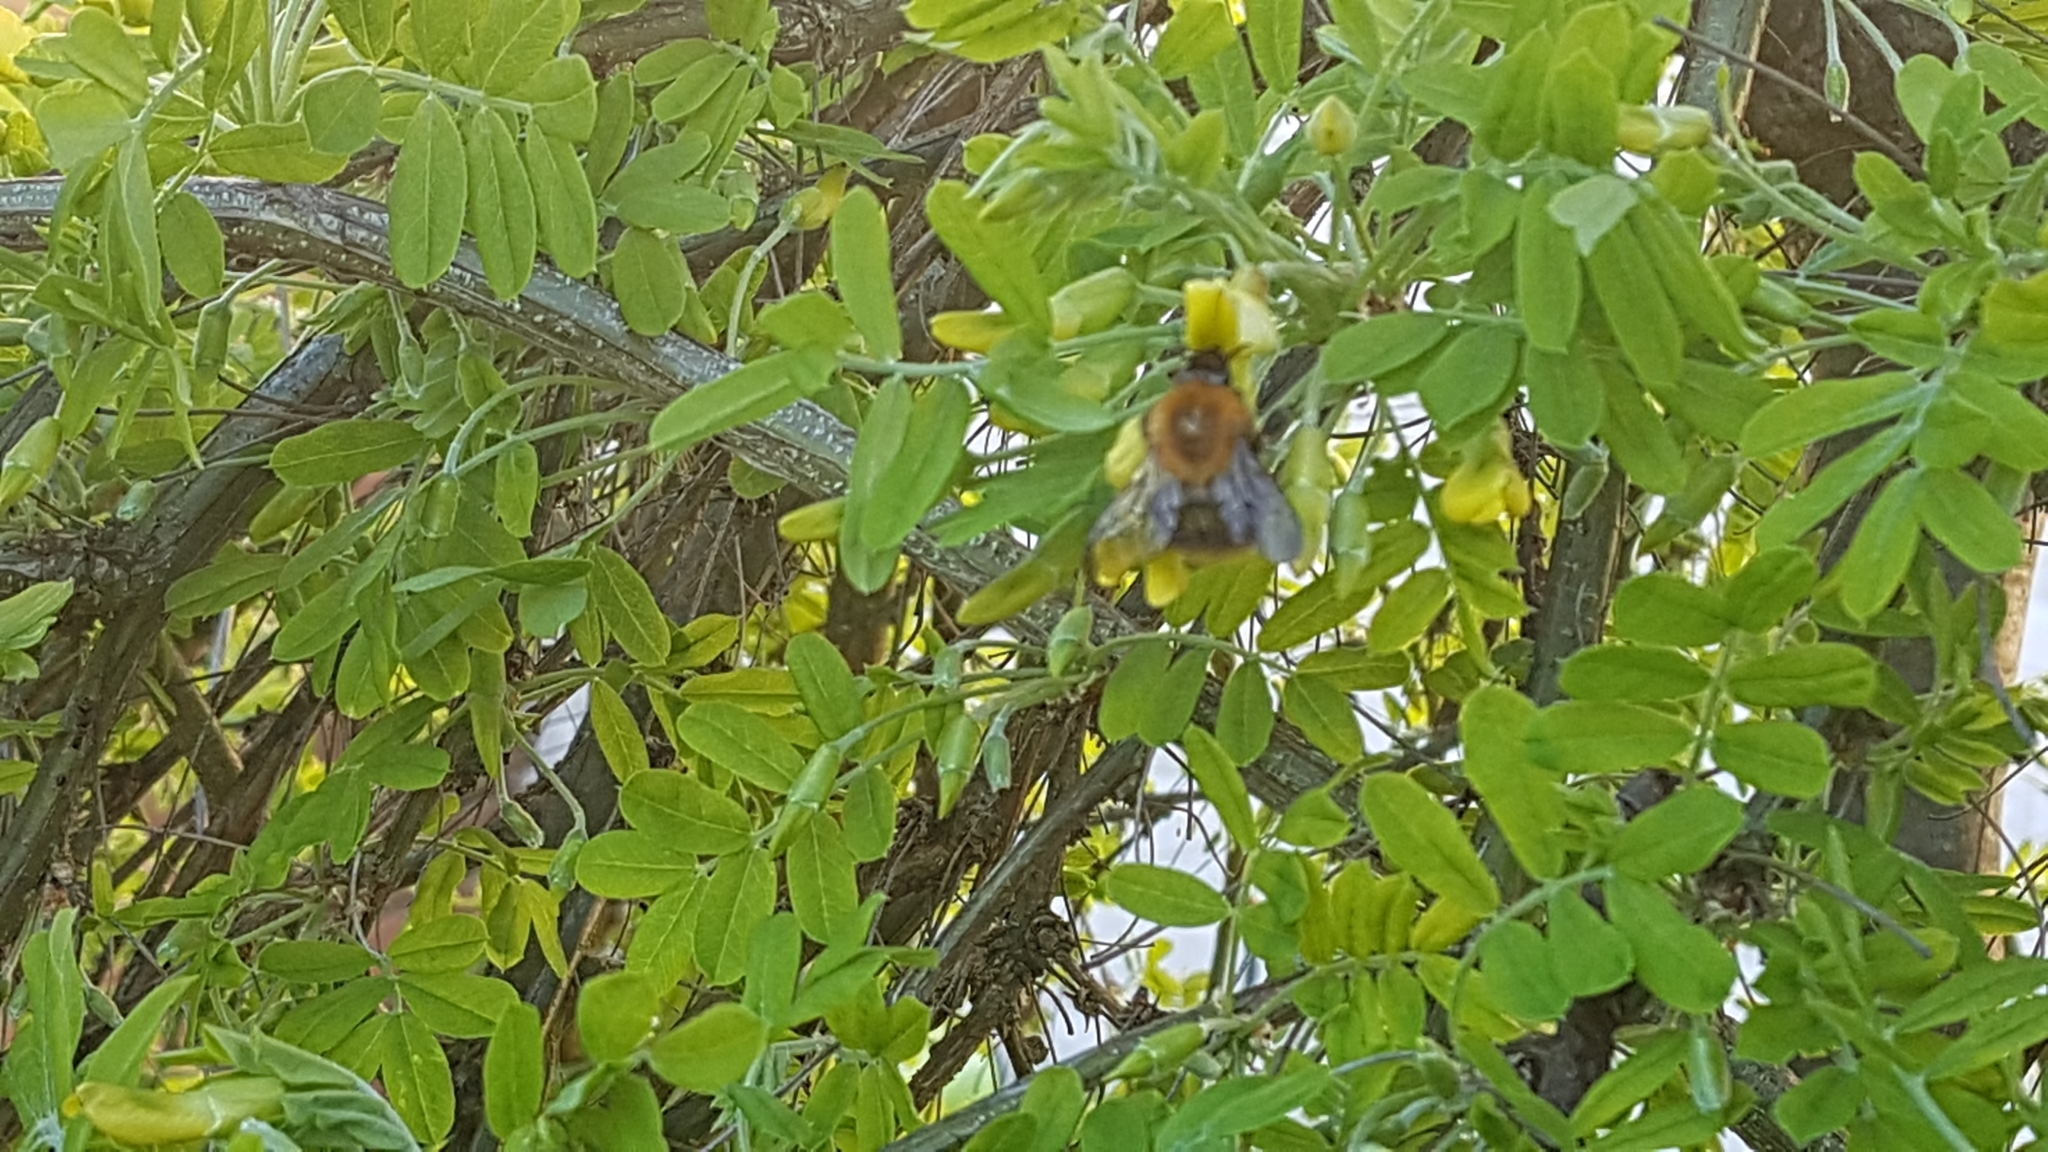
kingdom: Animalia
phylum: Arthropoda
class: Insecta
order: Hymenoptera
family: Apidae
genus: Bombus
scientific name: Bombus pascuorum
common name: Common carder bee
